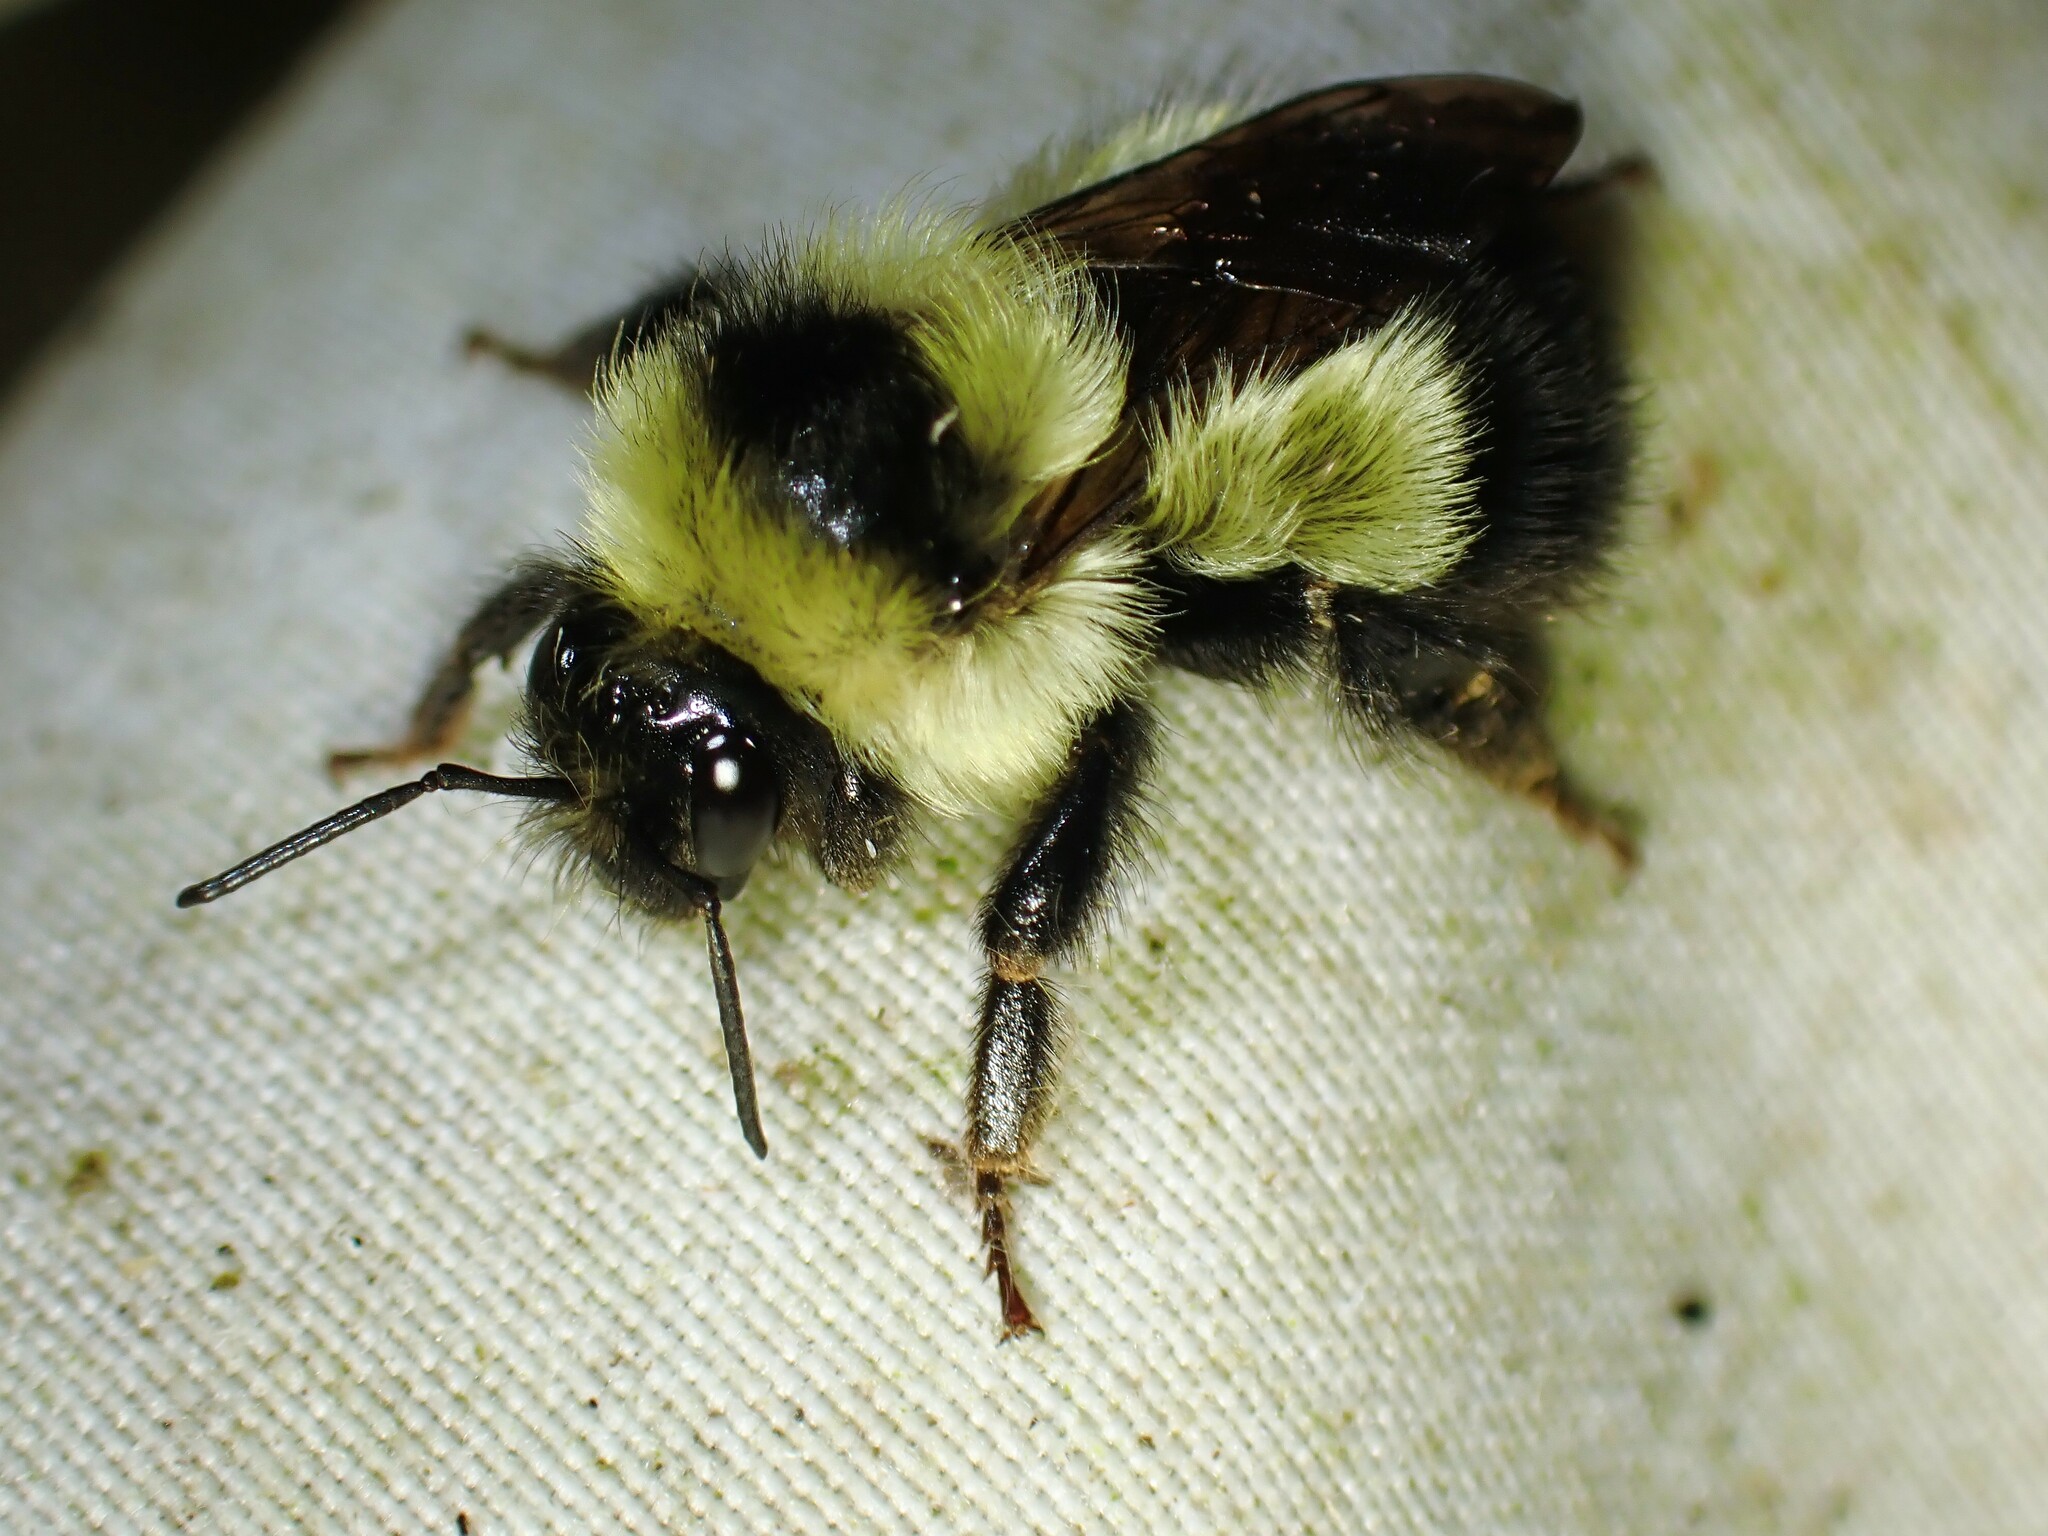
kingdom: Animalia
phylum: Arthropoda
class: Insecta
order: Hymenoptera
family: Apidae
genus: Bombus
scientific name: Bombus sandersoni
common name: Sanderson bumble bee
